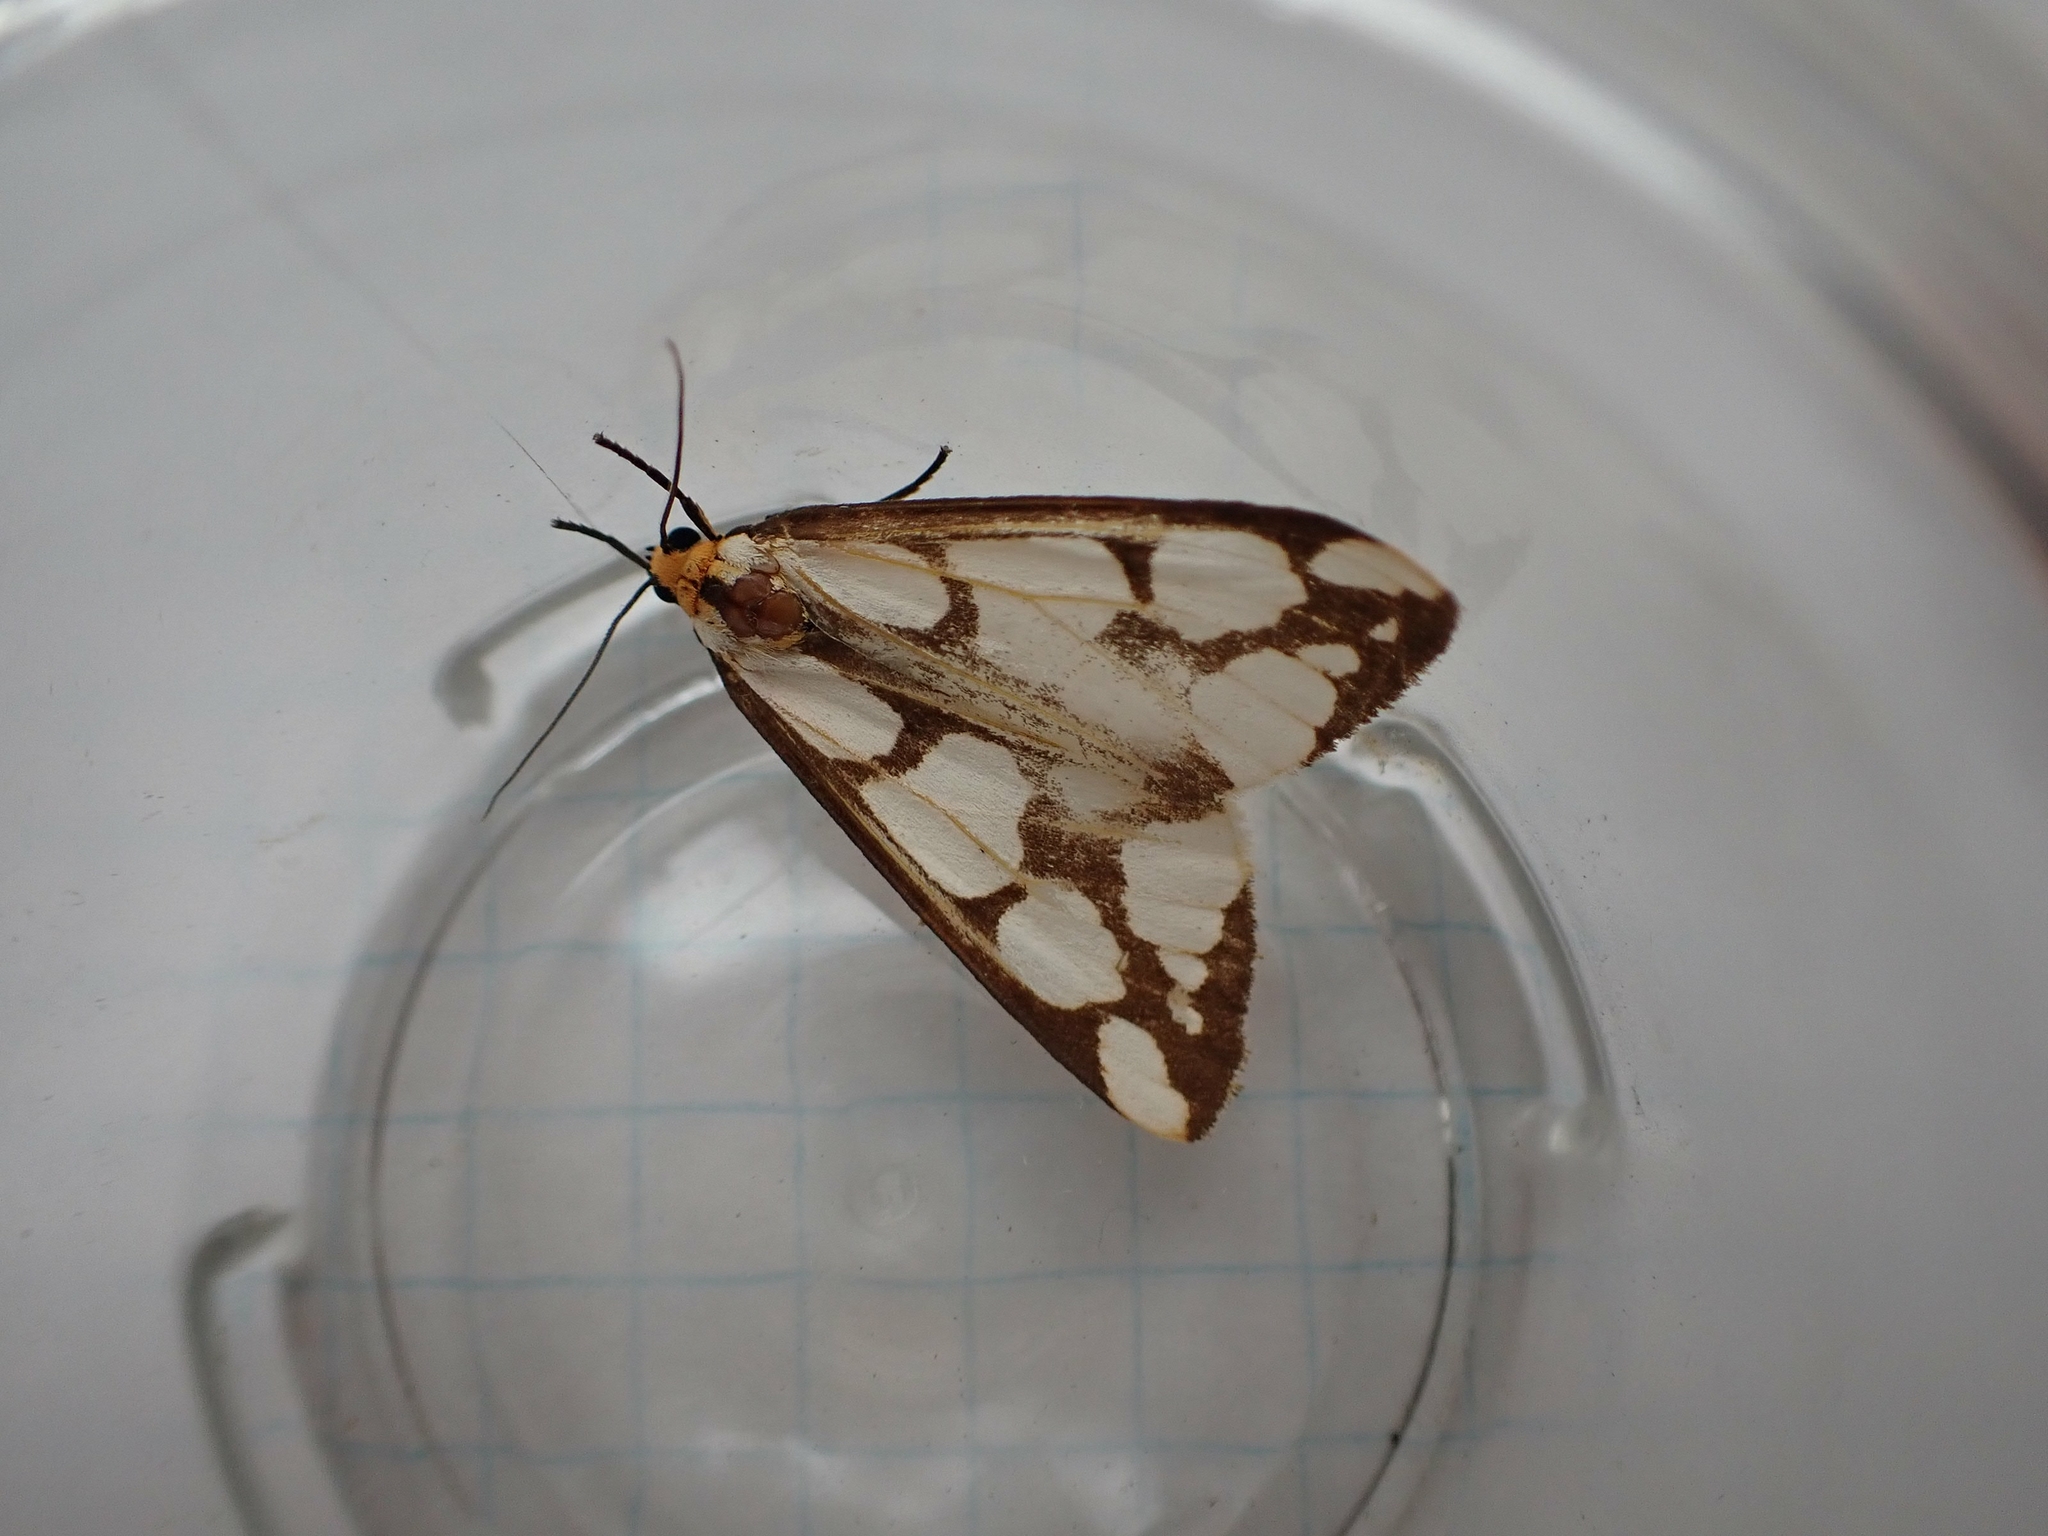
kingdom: Animalia
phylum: Arthropoda
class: Insecta
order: Lepidoptera
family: Erebidae
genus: Haploa
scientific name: Haploa lecontei
